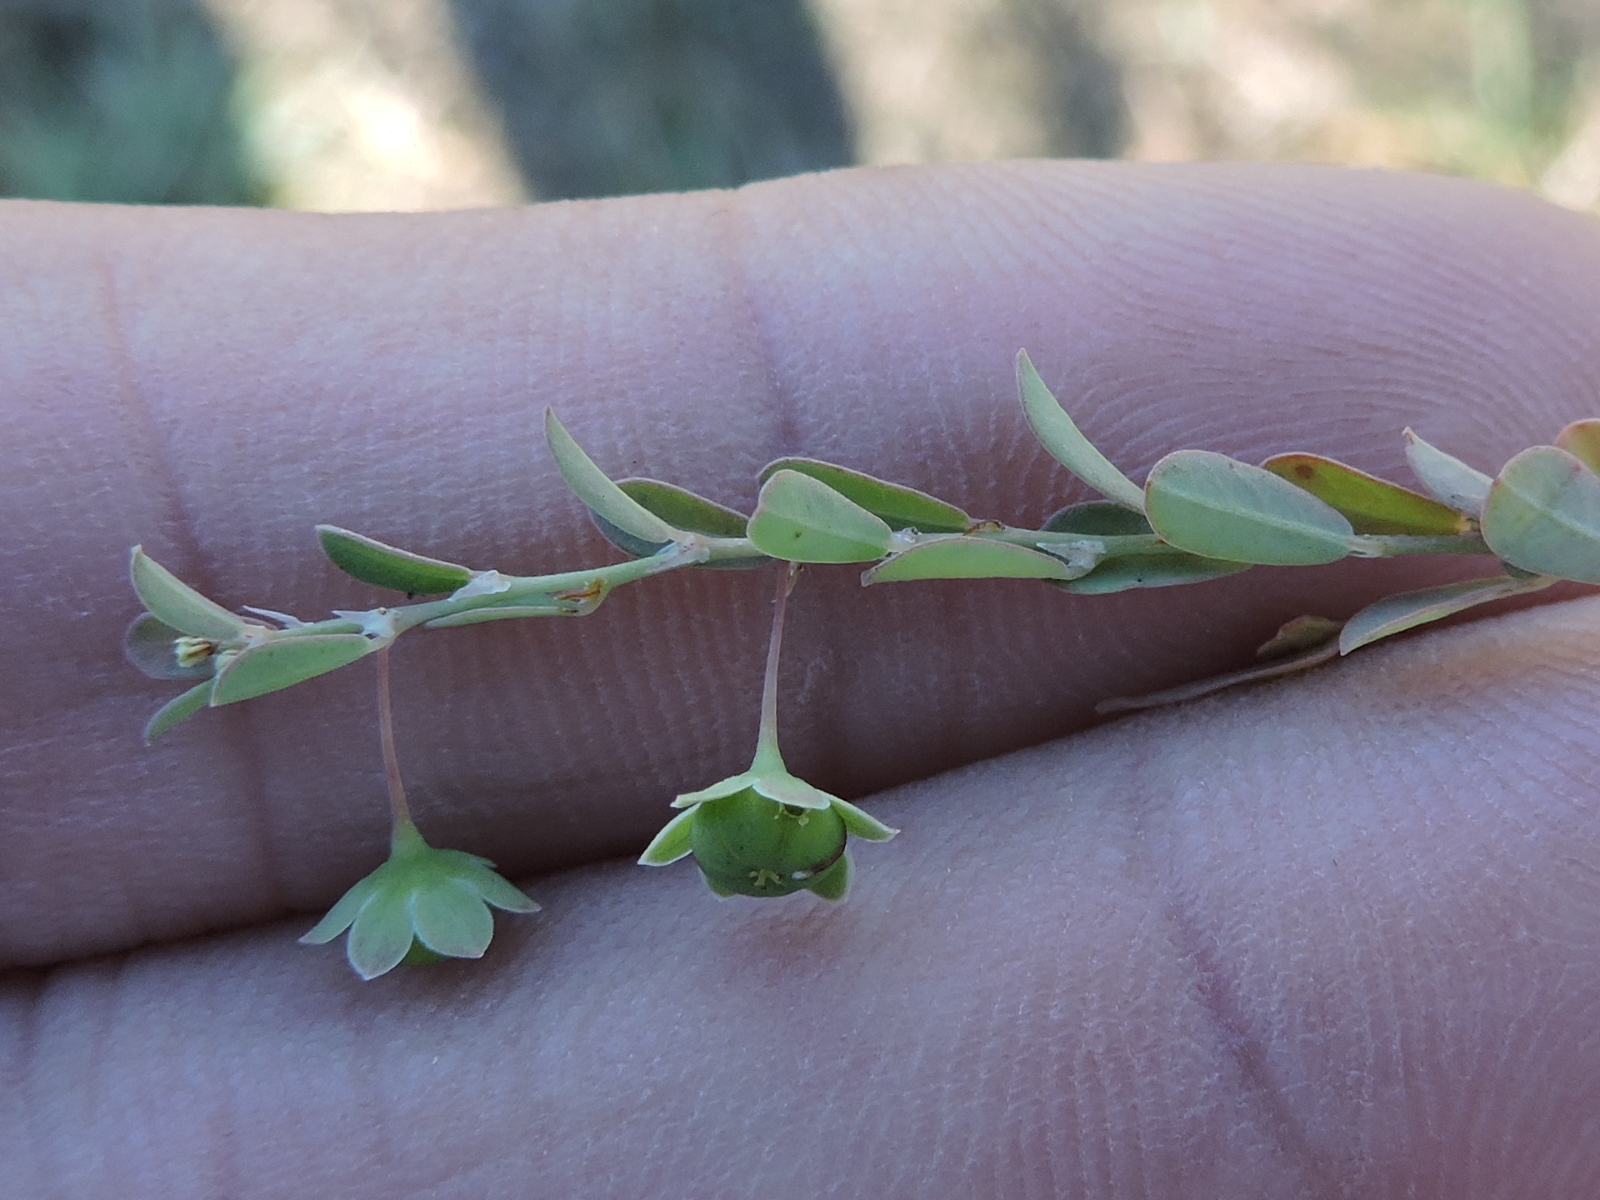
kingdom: Plantae
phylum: Tracheophyta
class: Magnoliopsida
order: Malpighiales
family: Phyllanthaceae
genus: Phyllanthus
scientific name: Phyllanthus polygonoides
